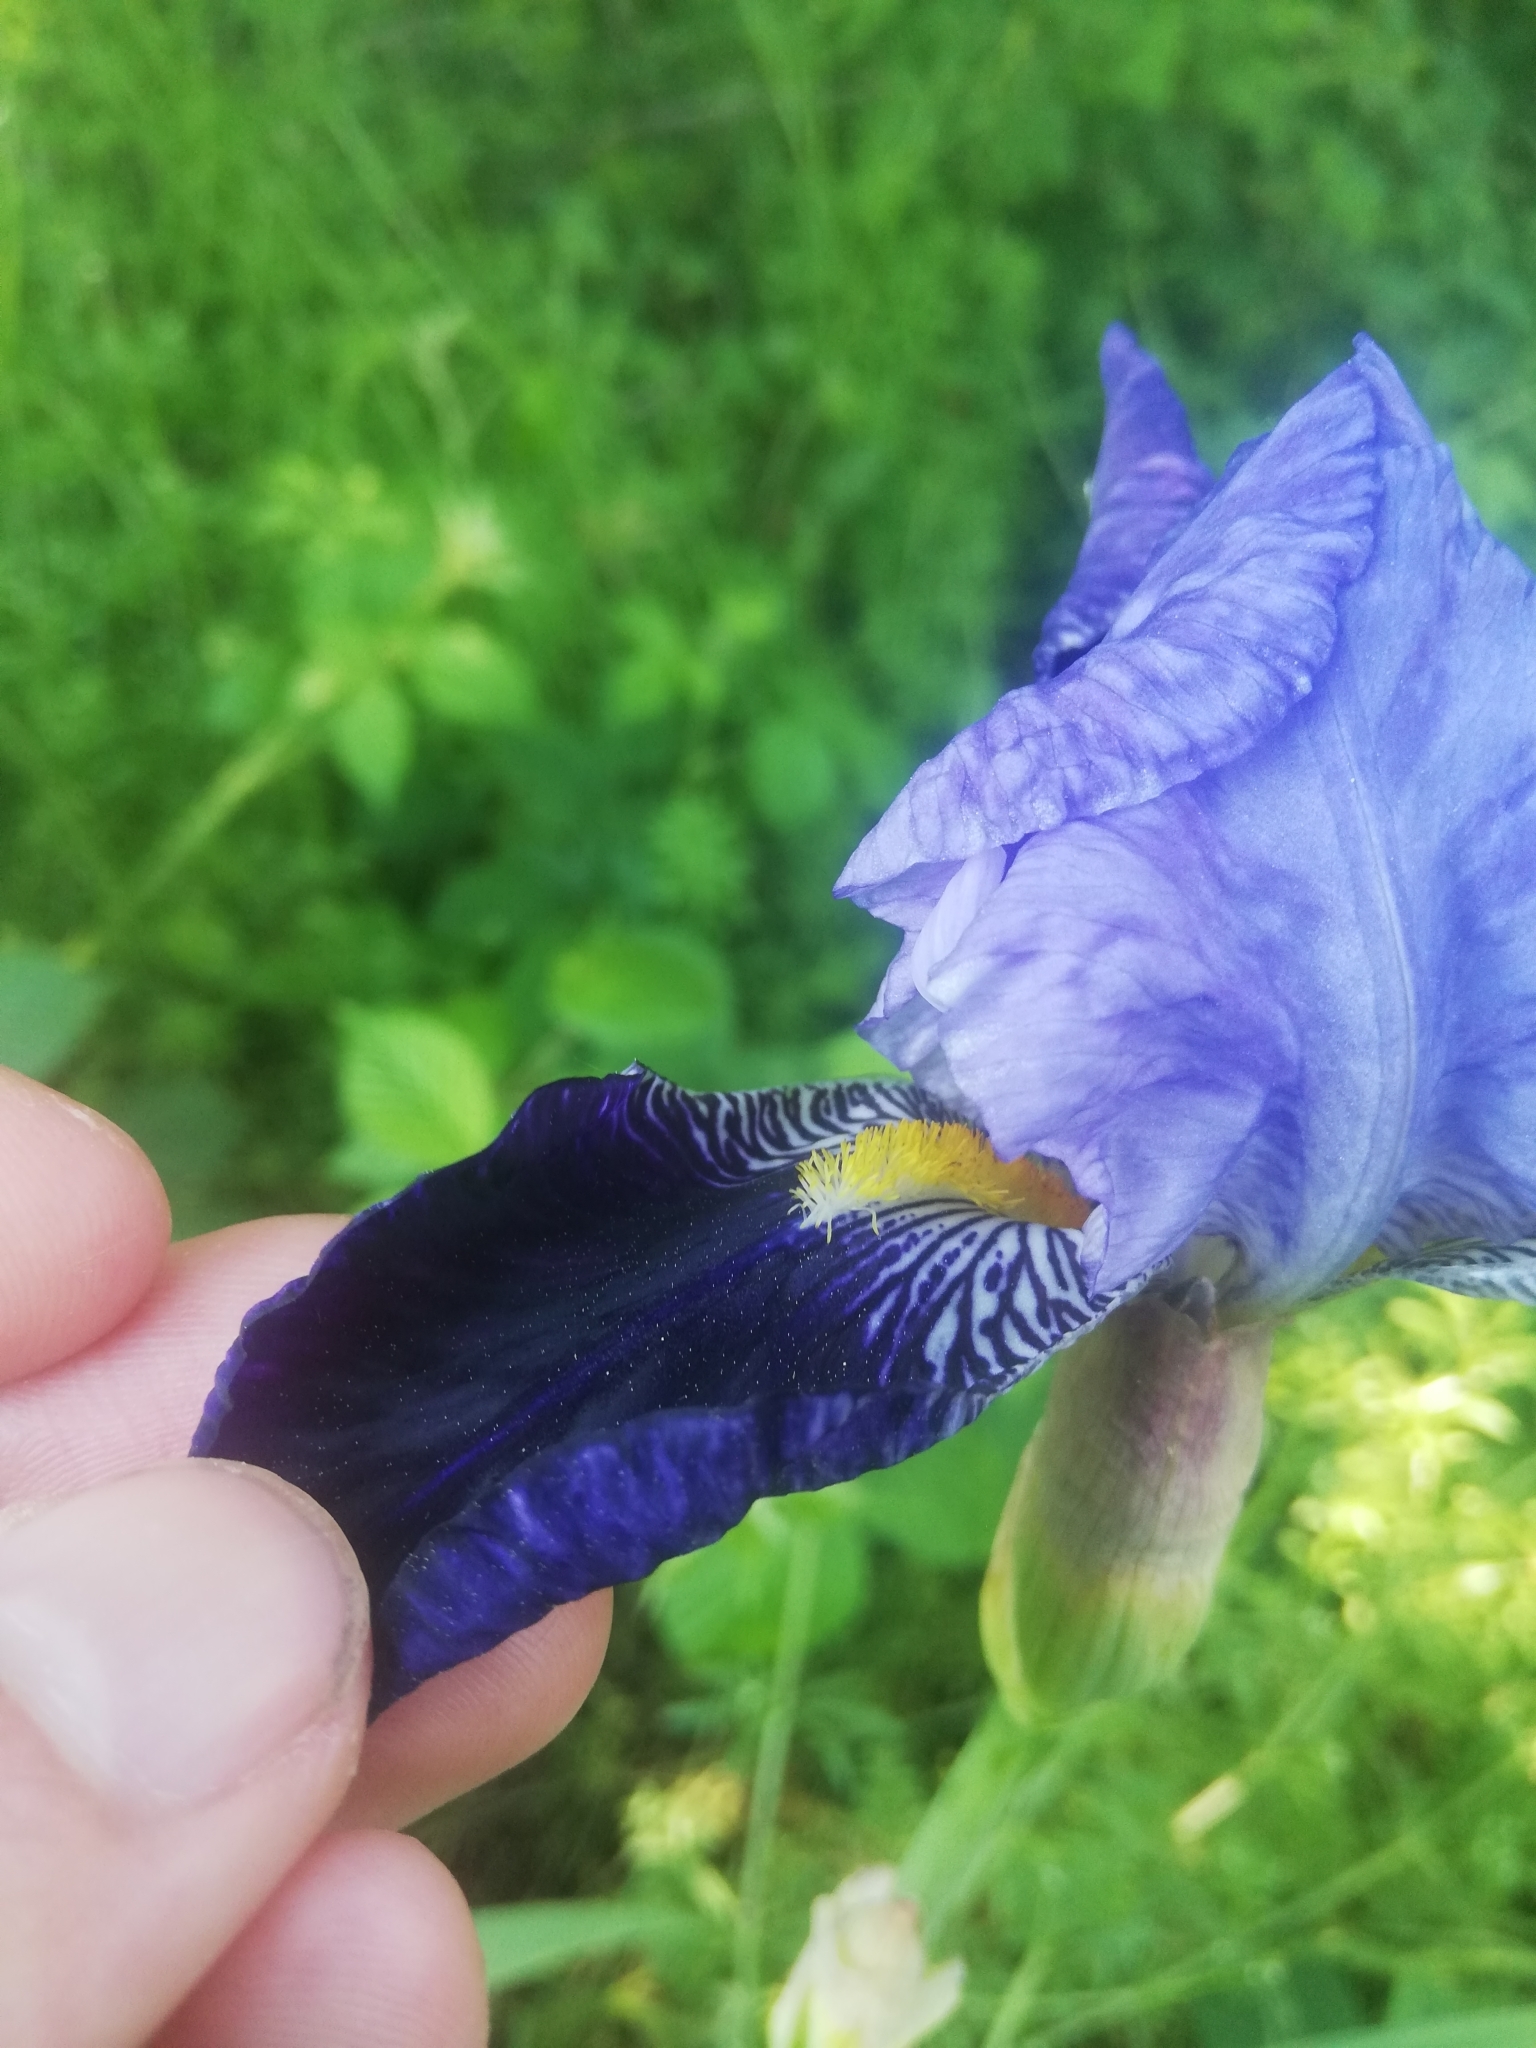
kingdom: Plantae
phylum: Tracheophyta
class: Liliopsida
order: Asparagales
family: Iridaceae
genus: Iris
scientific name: Iris germanica
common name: German iris
